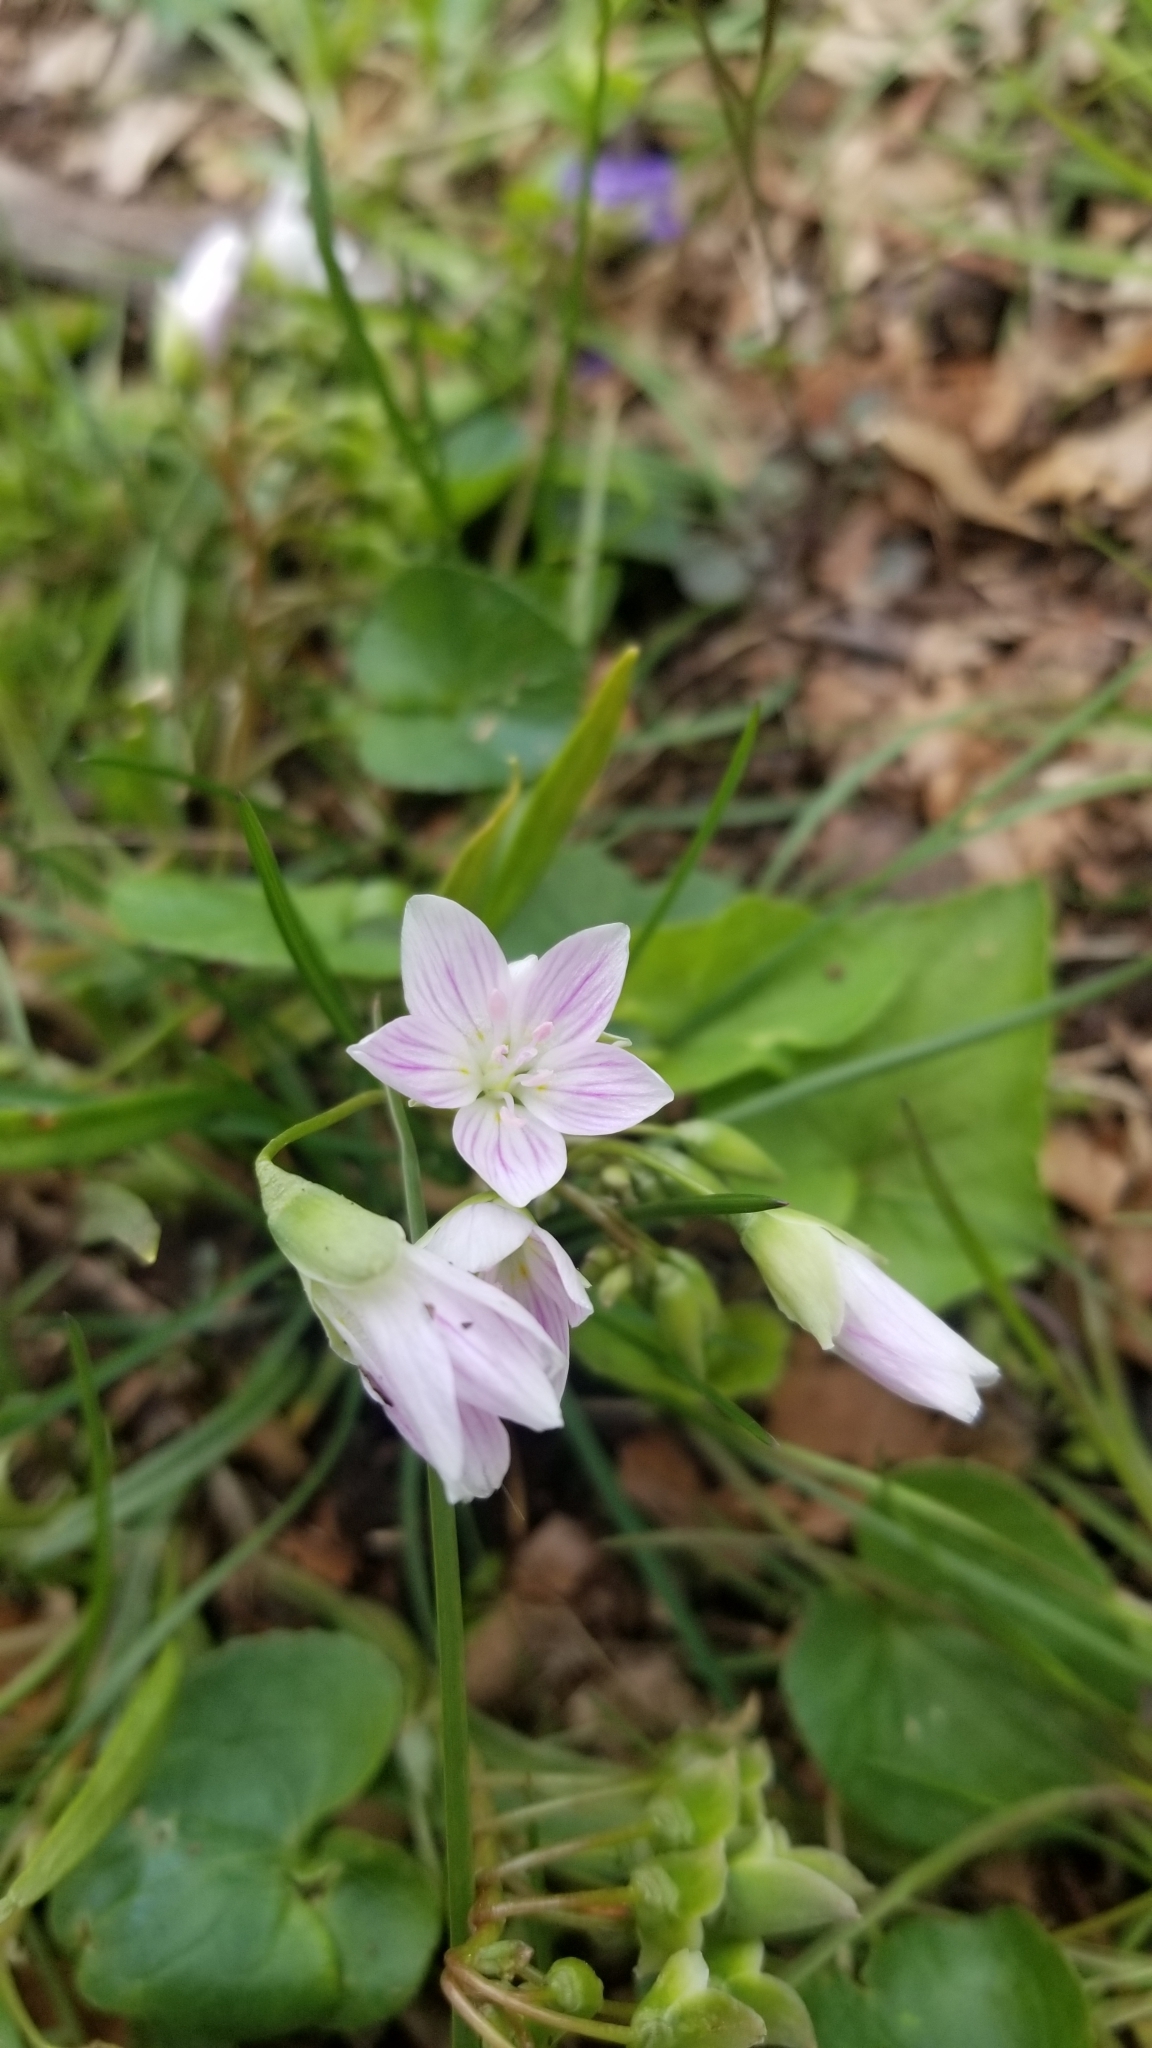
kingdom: Plantae
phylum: Tracheophyta
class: Magnoliopsida
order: Caryophyllales
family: Montiaceae
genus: Claytonia
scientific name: Claytonia virginica
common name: Virginia springbeauty
